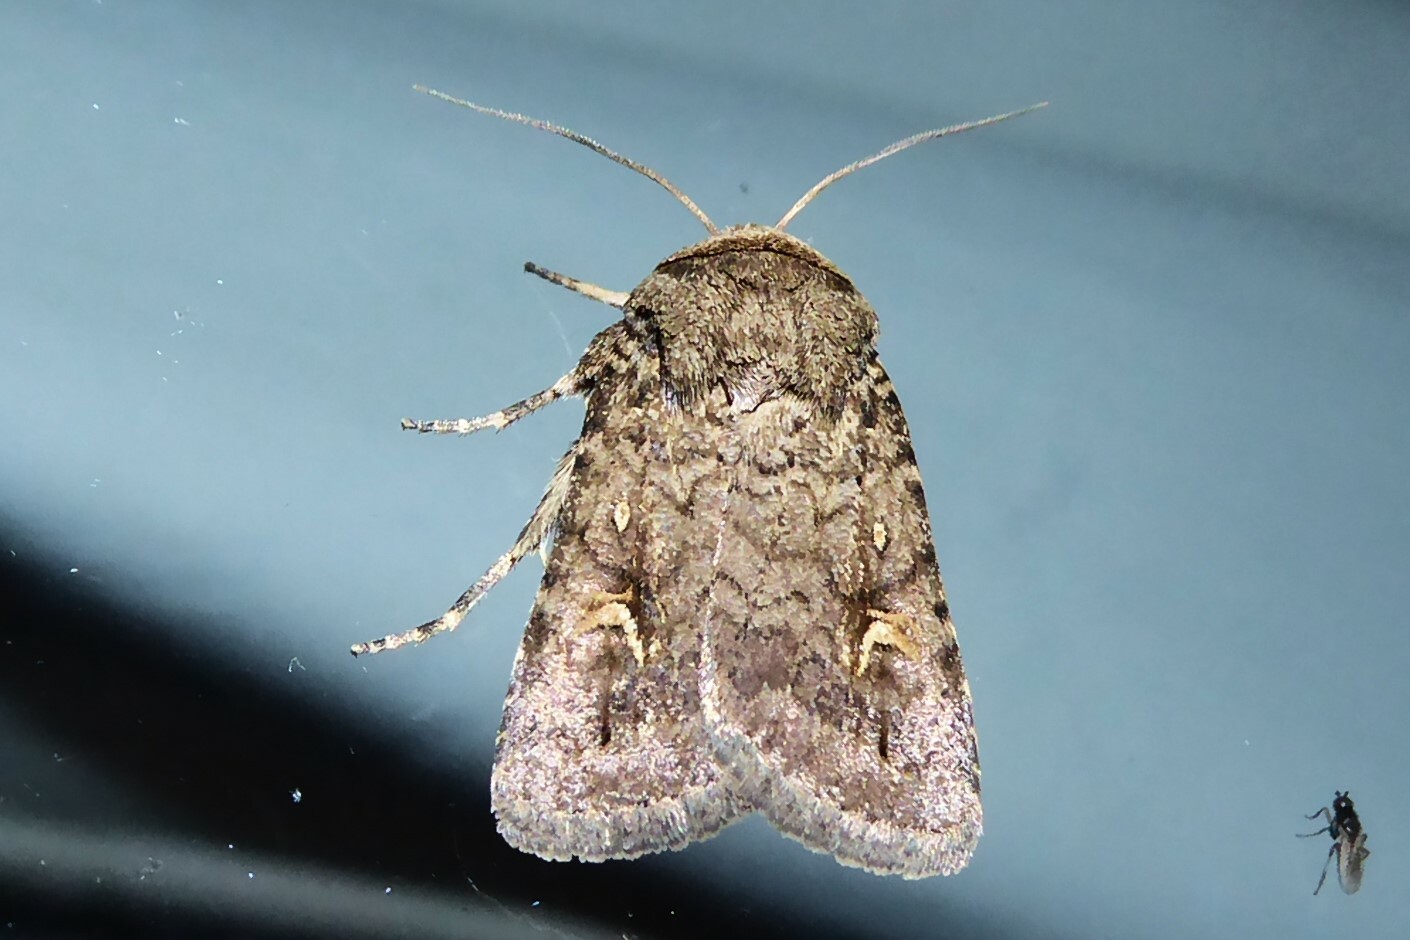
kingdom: Animalia
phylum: Arthropoda
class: Insecta
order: Lepidoptera
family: Noctuidae
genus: Proteuxoa
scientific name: Proteuxoa tetronycha
